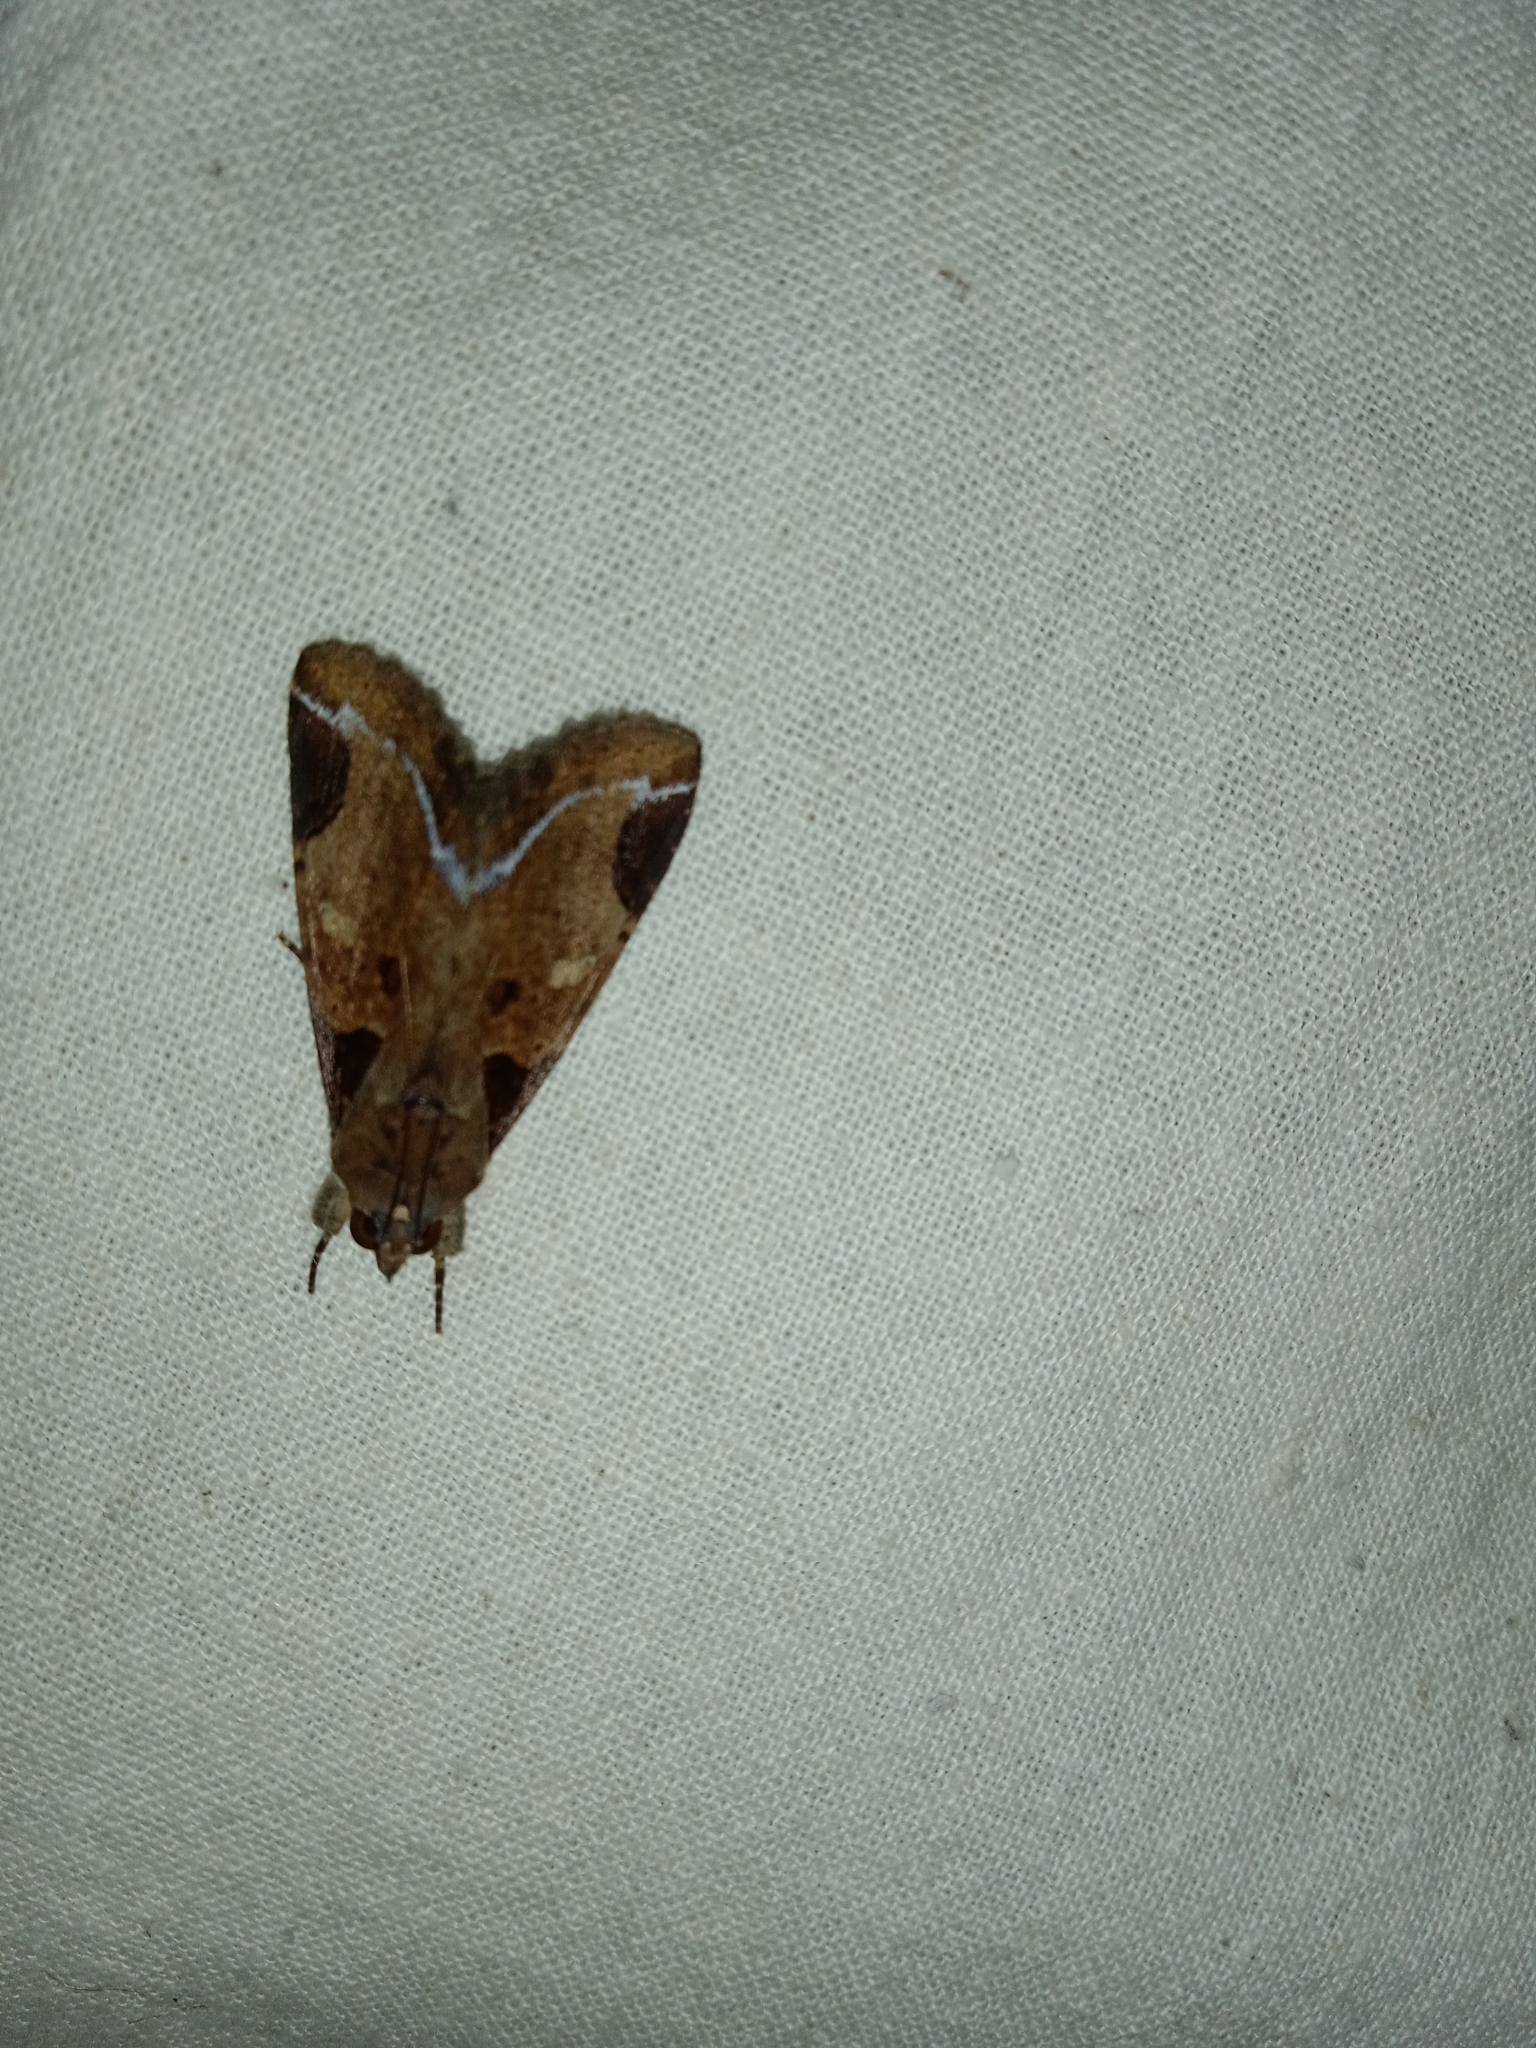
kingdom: Animalia
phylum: Arthropoda
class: Insecta
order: Lepidoptera
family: Erebidae
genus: Ercheia
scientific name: Ercheia cyllaria
